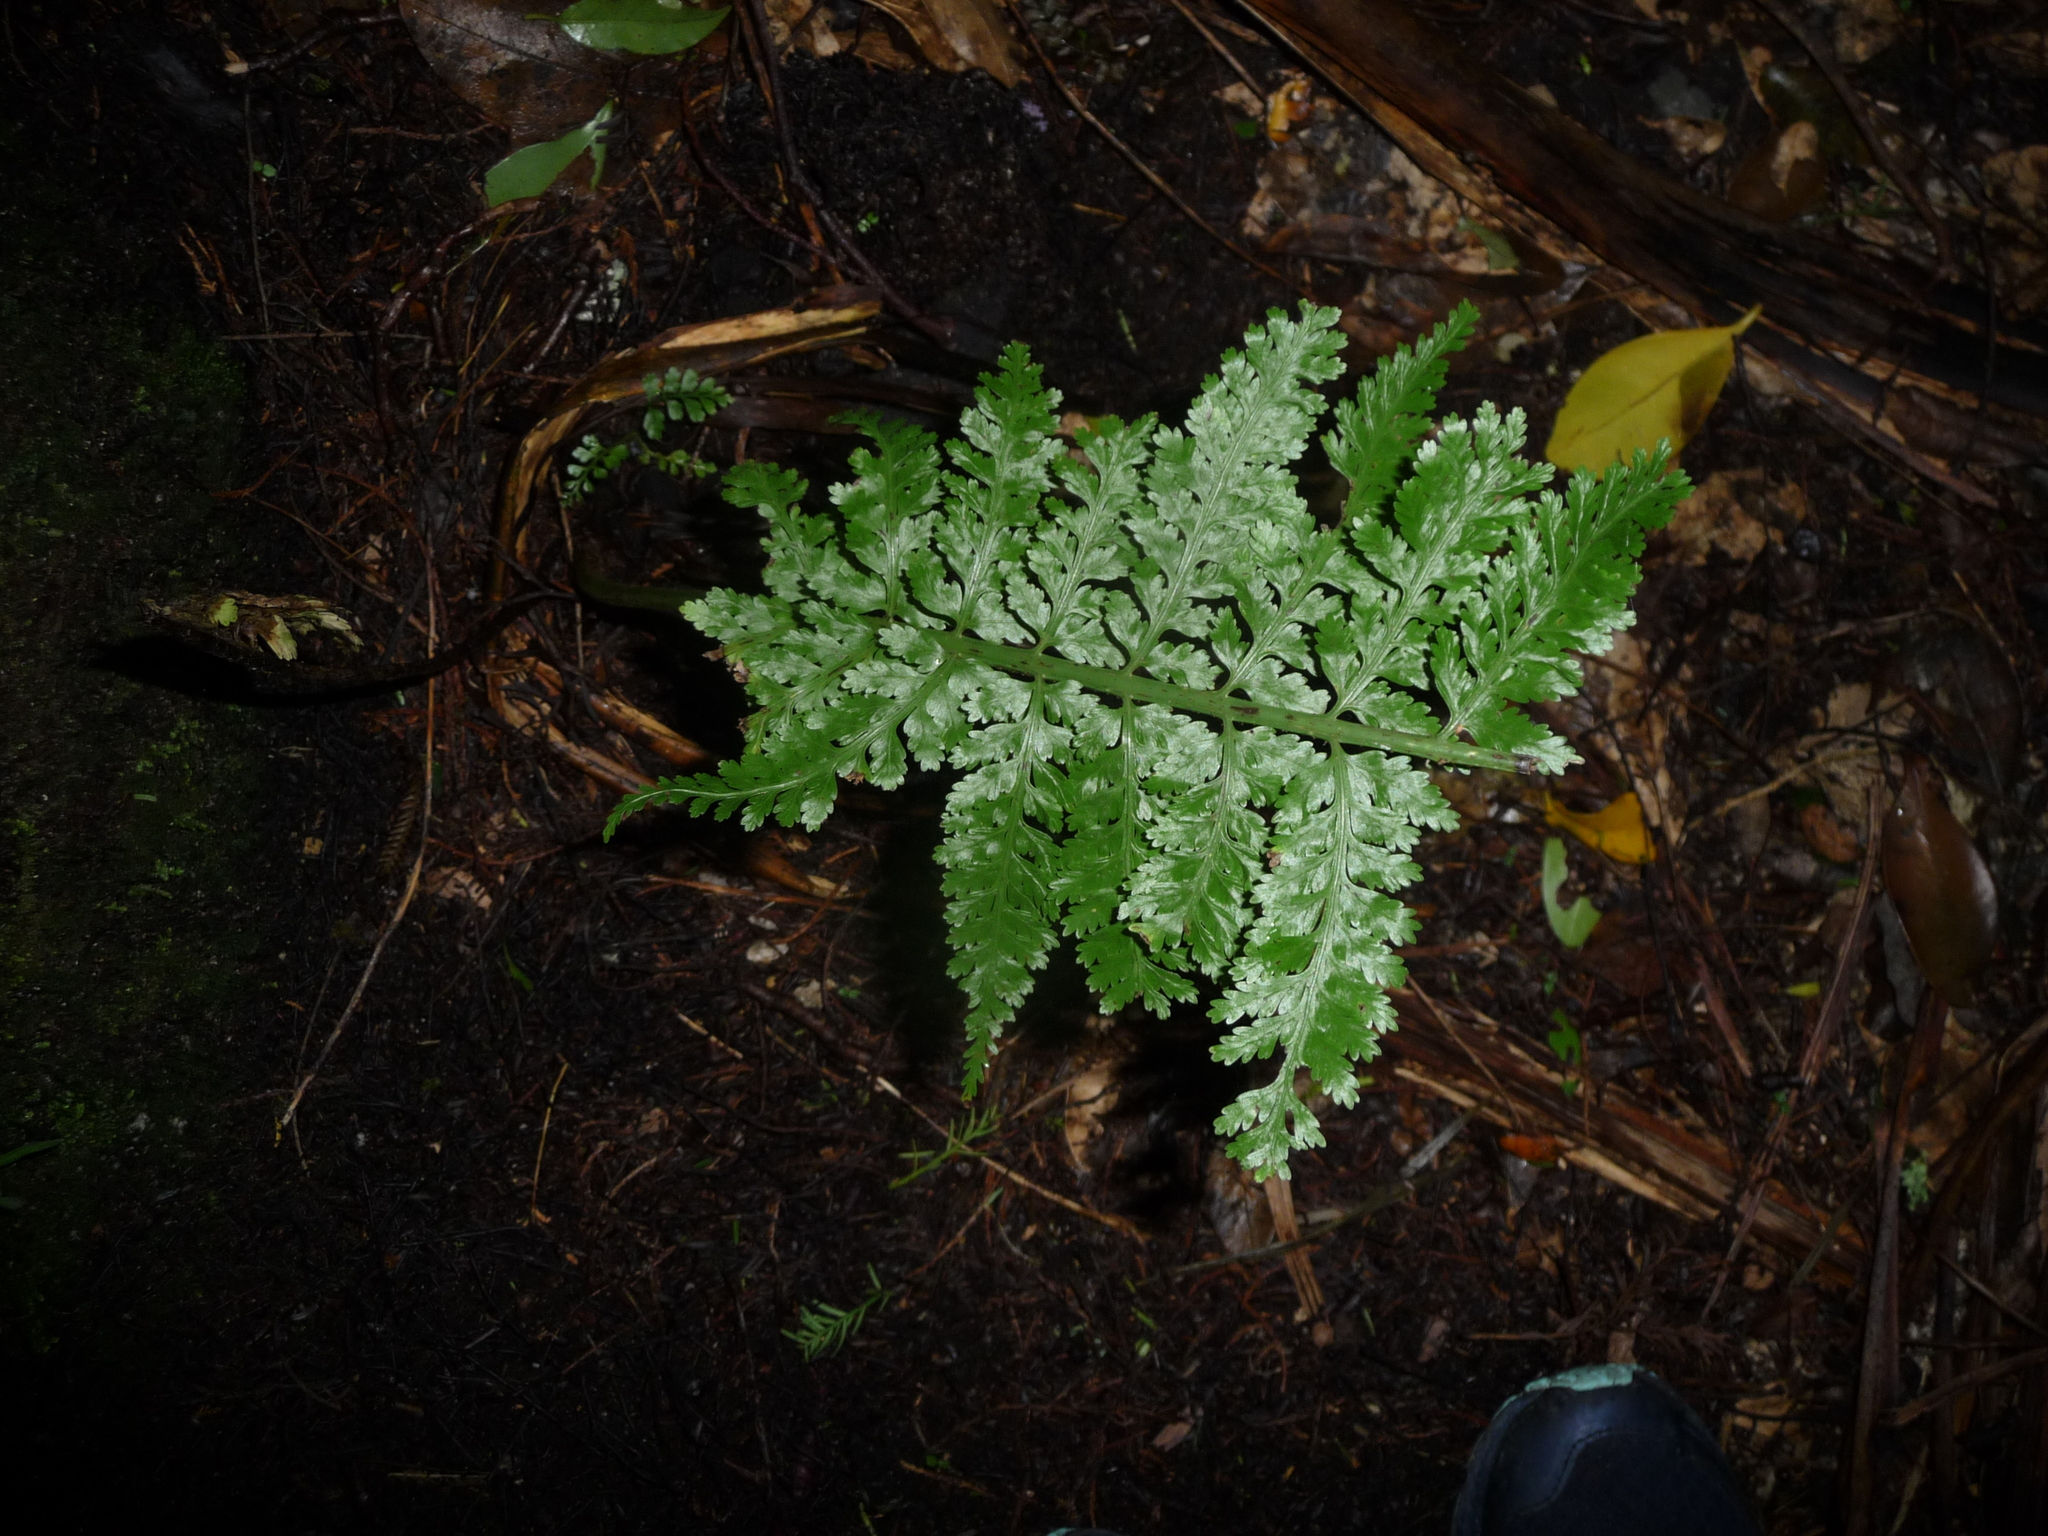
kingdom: Plantae
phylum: Tracheophyta
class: Polypodiopsida
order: Polypodiales
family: Aspleniaceae
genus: Asplenium
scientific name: Asplenium bulbiferum
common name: Mother fern
